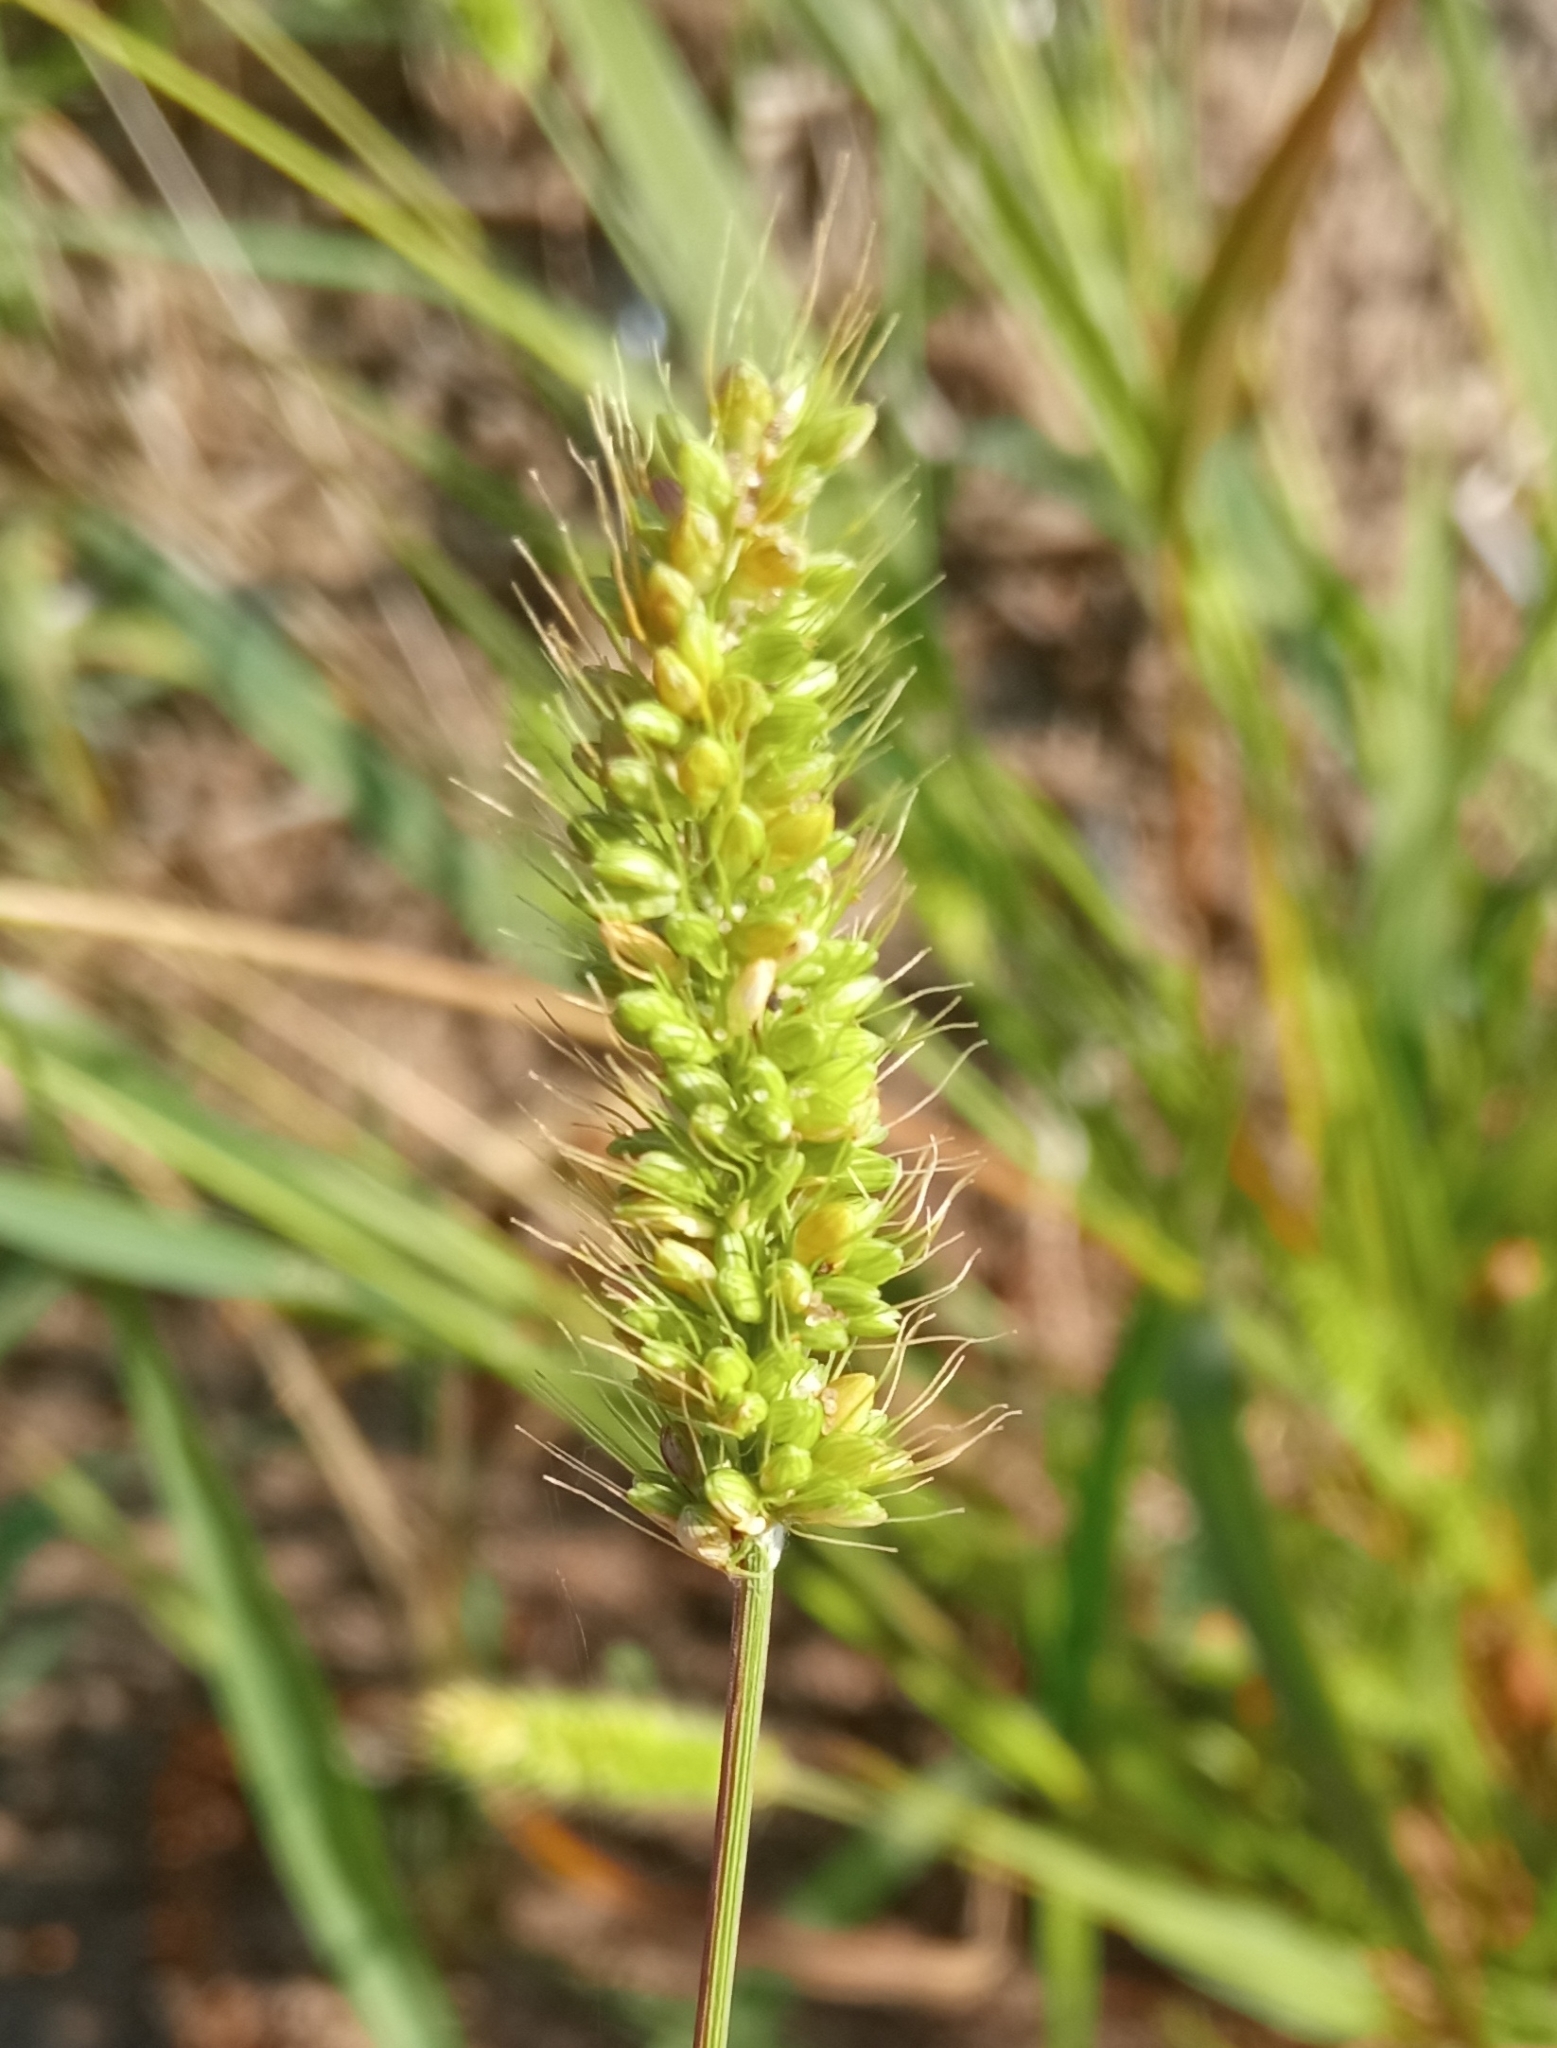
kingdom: Plantae
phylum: Tracheophyta
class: Liliopsida
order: Poales
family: Poaceae
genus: Setaria
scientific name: Setaria viridis
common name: Green bristlegrass
